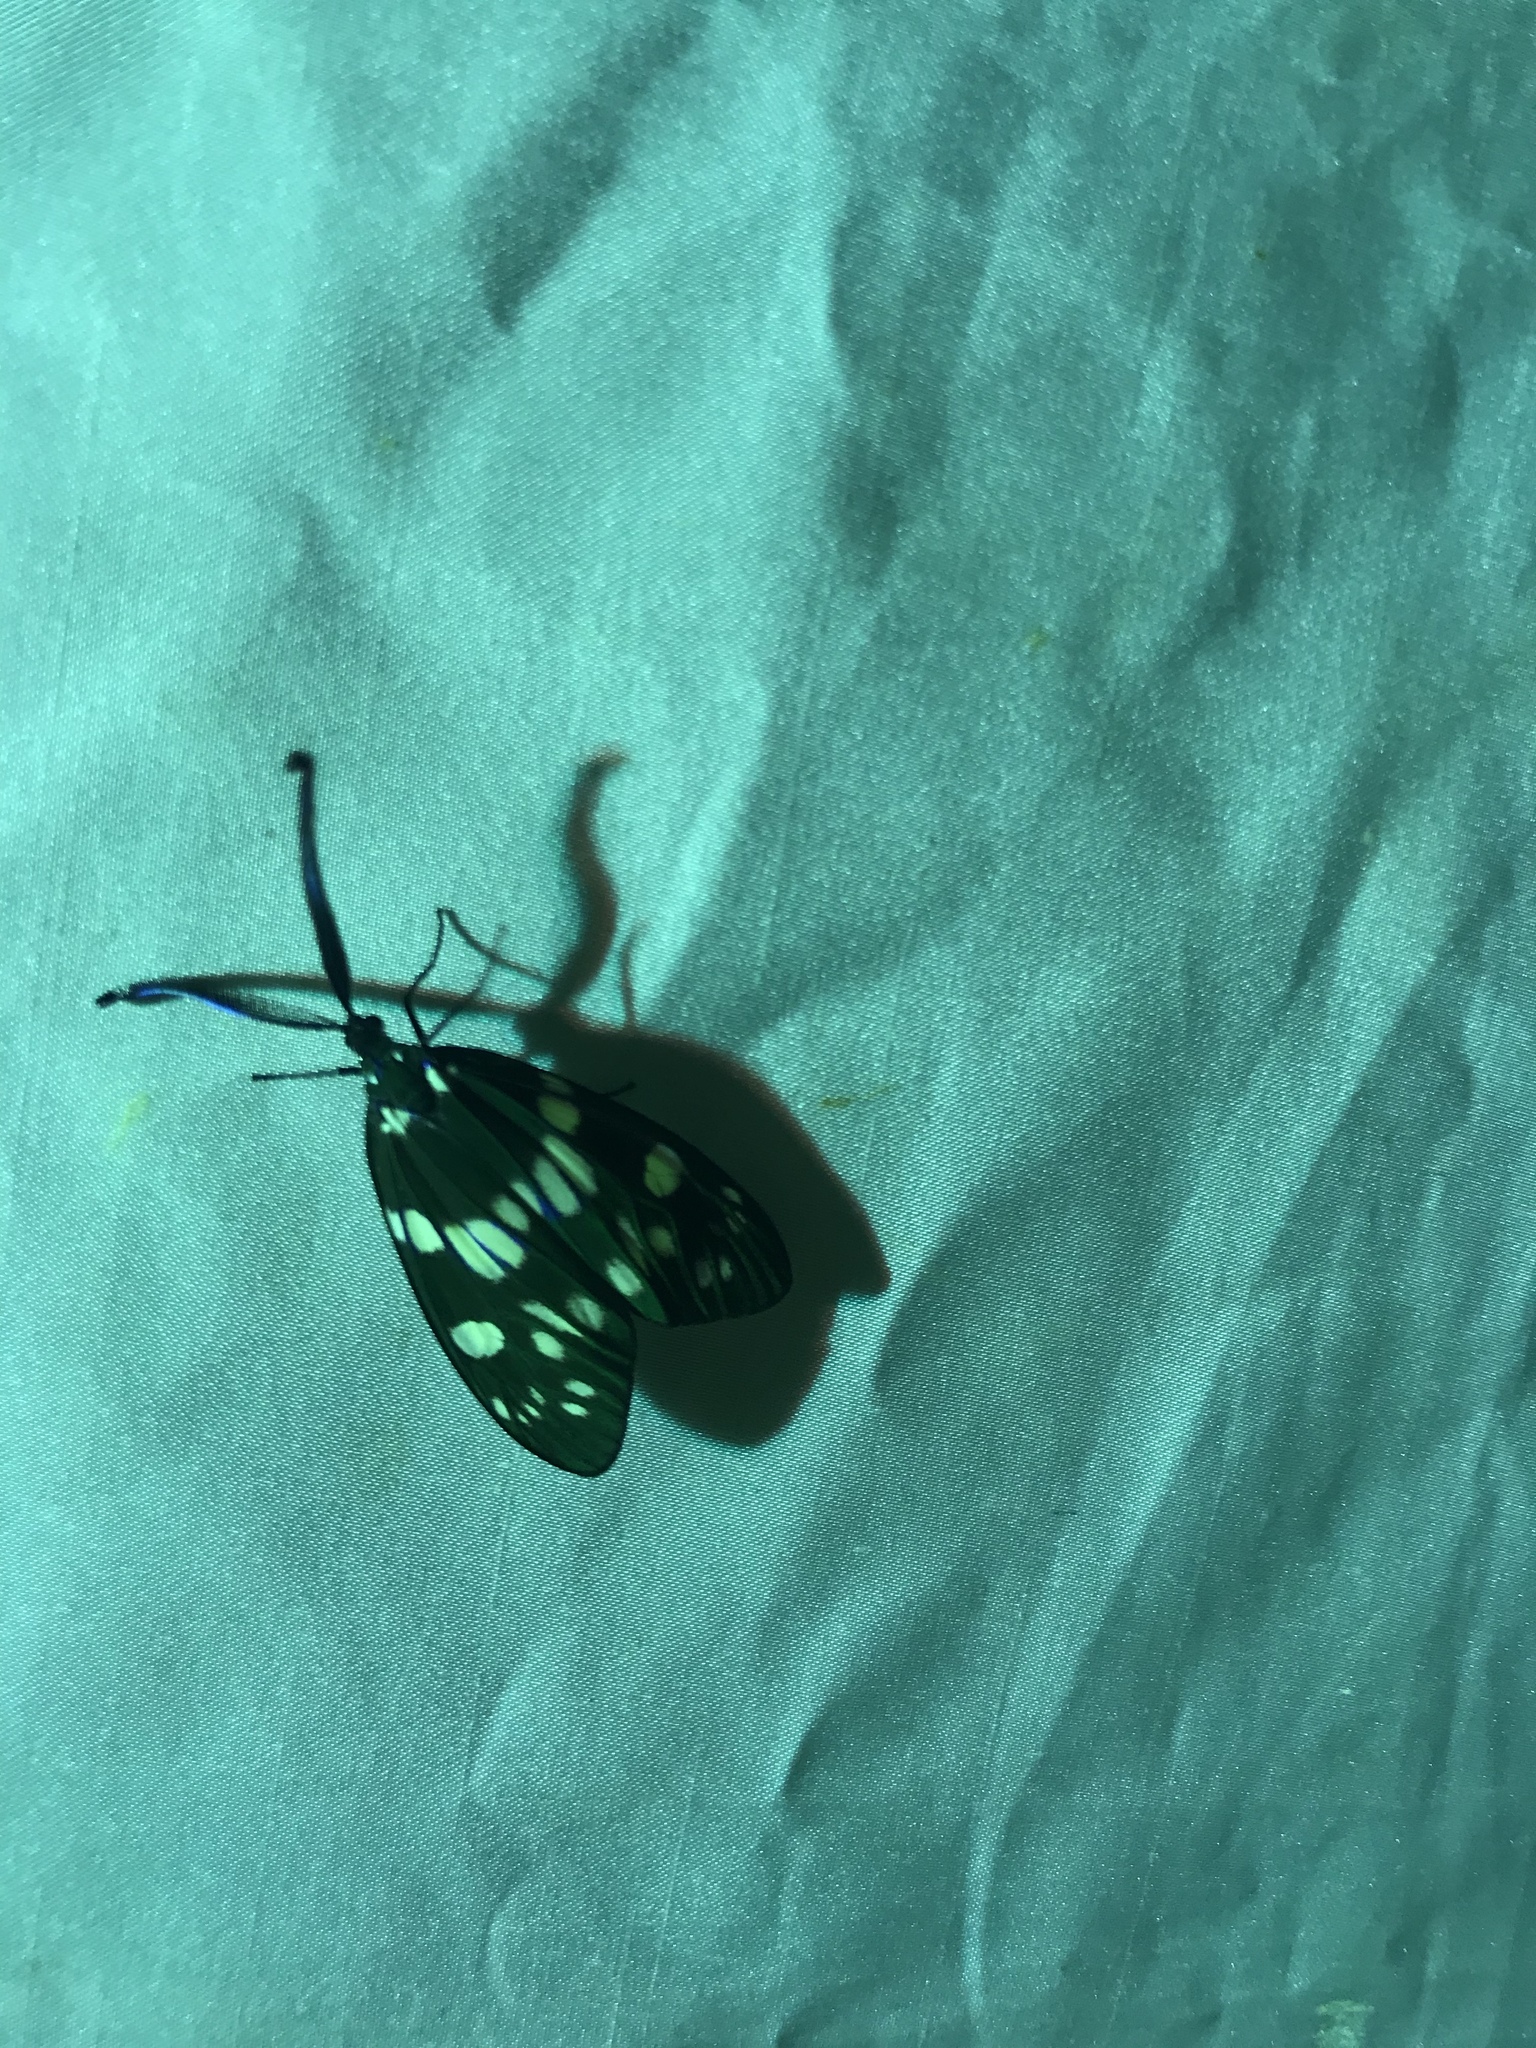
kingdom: Animalia
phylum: Arthropoda
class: Insecta
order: Lepidoptera
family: Zygaenidae
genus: Eterusia
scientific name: Eterusia aedea
